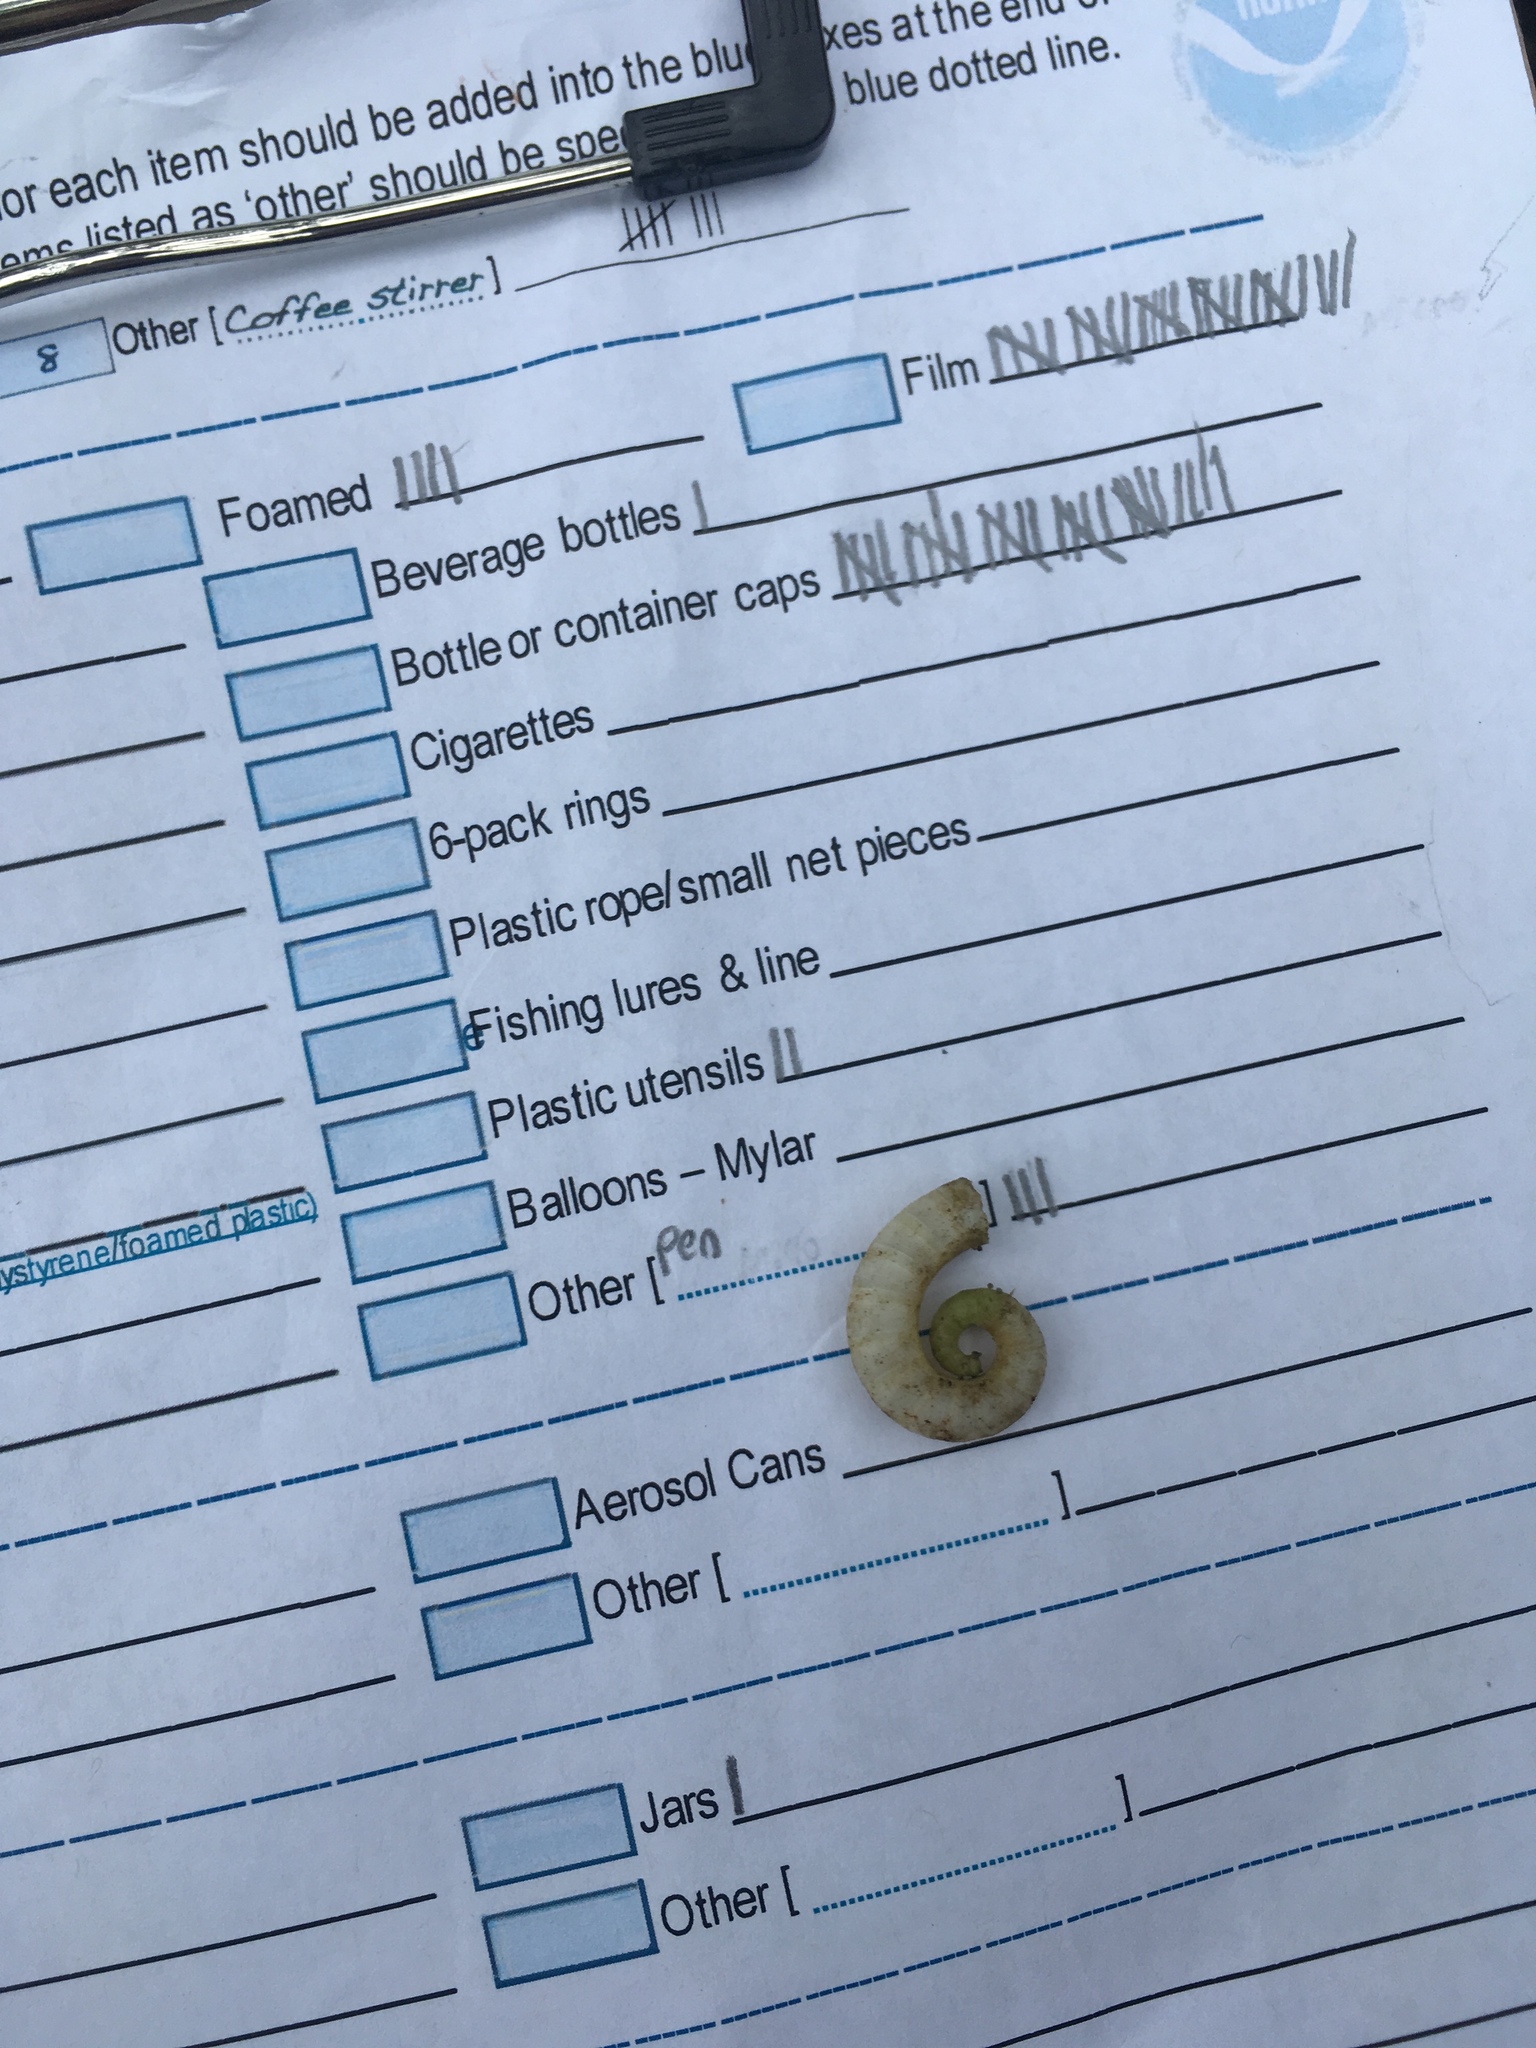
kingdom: Animalia
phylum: Mollusca
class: Cephalopoda
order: Spirulida
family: Spirulidae
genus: Spirula
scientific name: Spirula spirula
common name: Ram's horn squid
